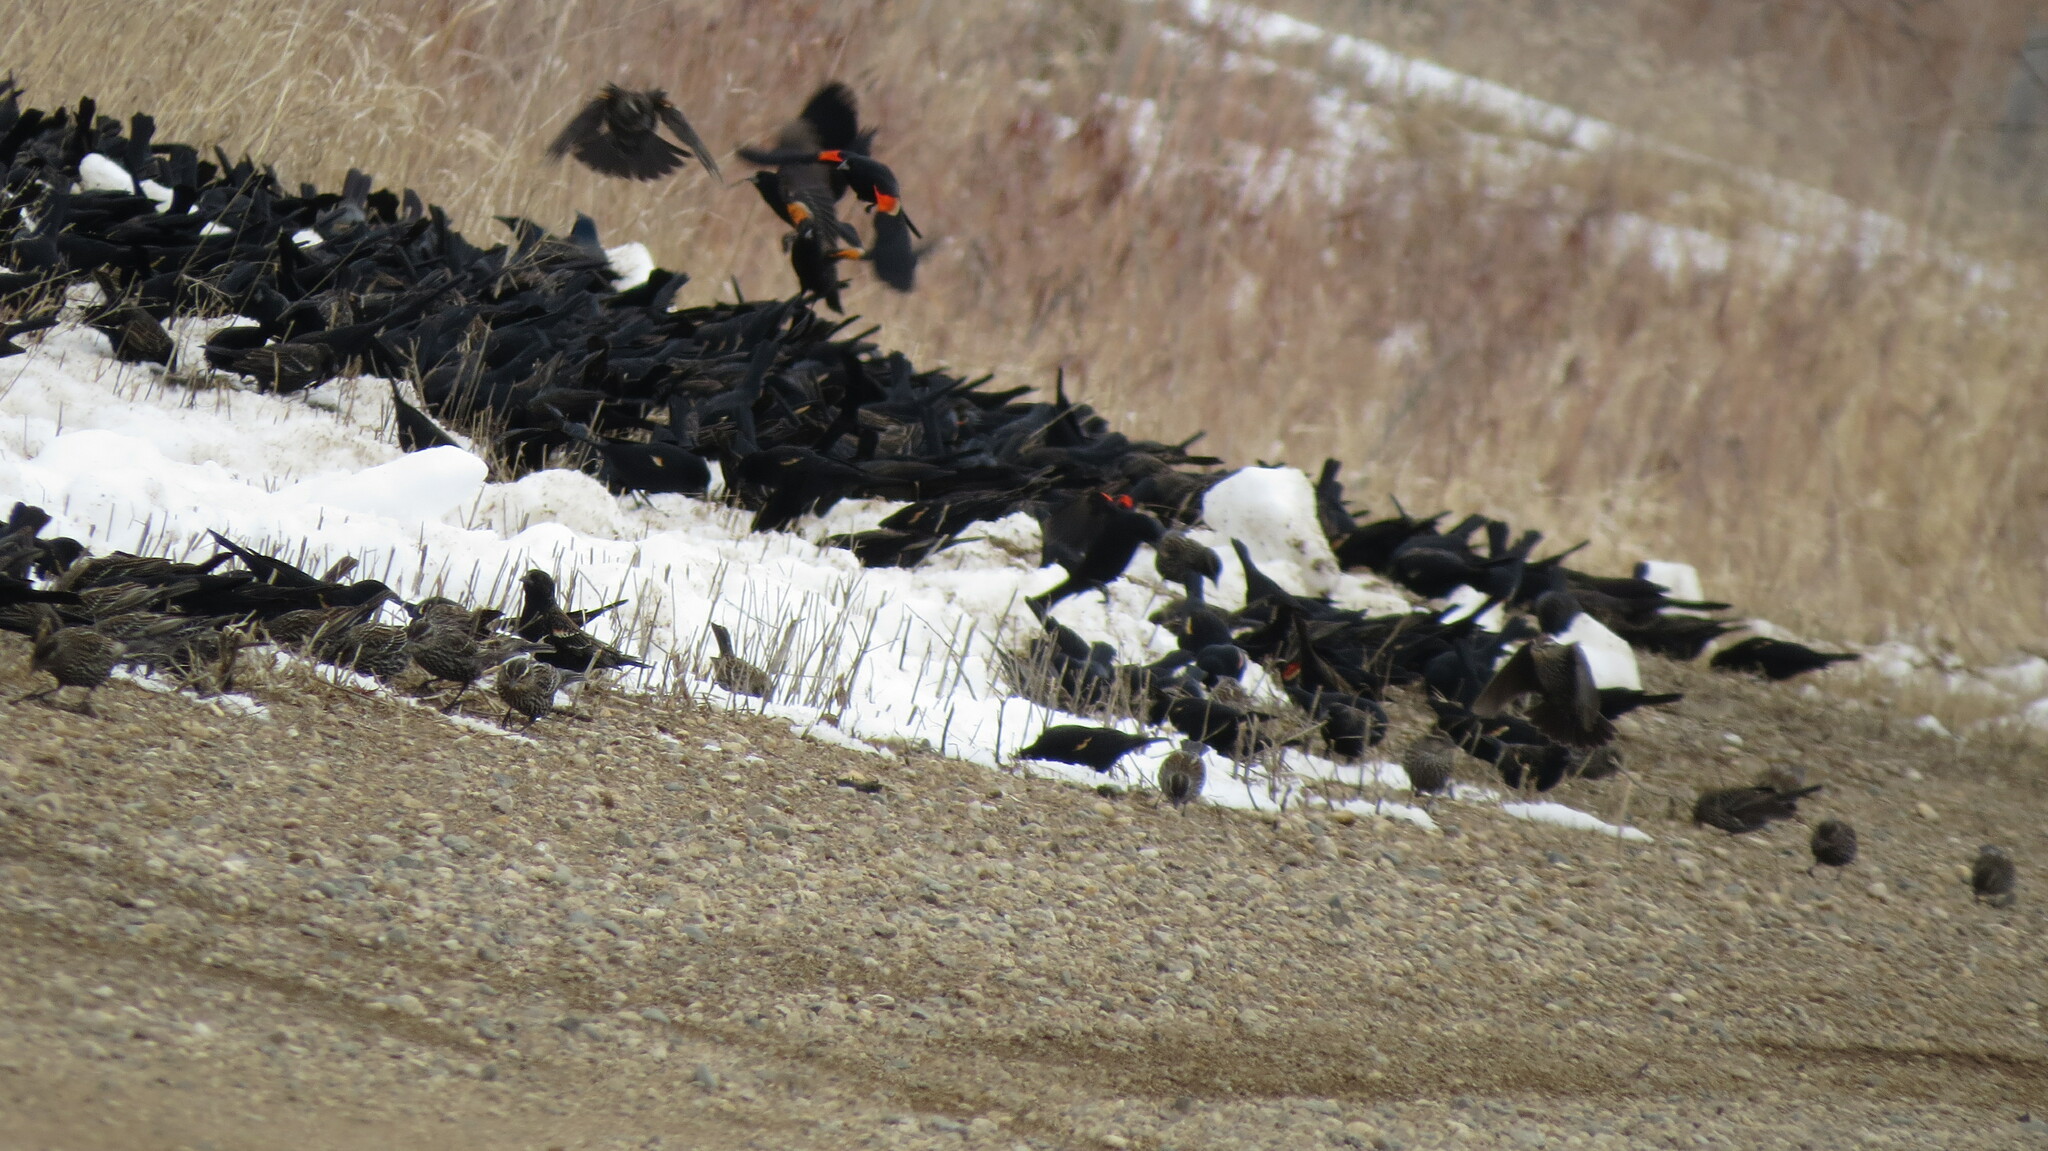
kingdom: Animalia
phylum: Chordata
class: Aves
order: Passeriformes
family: Icteridae
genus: Agelaius
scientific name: Agelaius phoeniceus
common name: Red-winged blackbird
